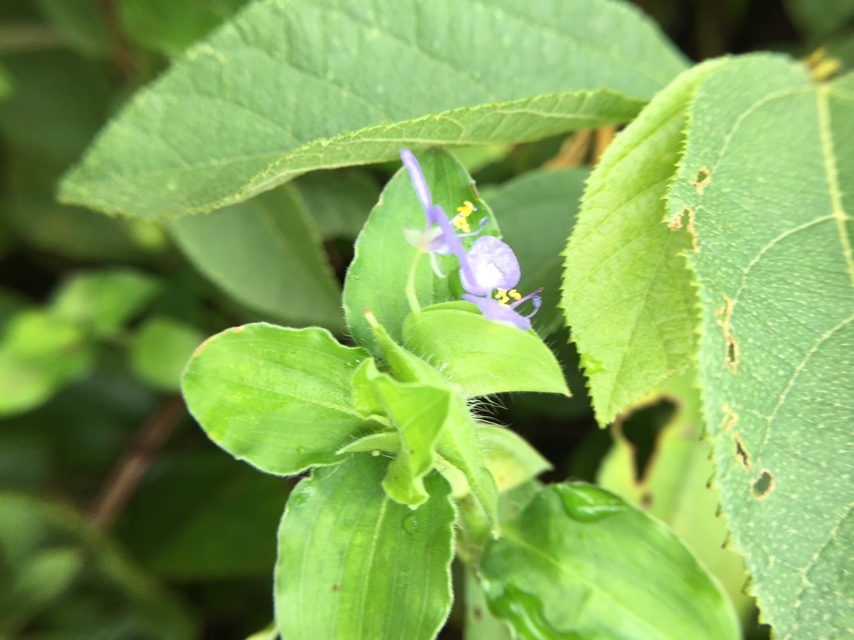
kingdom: Plantae
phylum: Tracheophyta
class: Liliopsida
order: Commelinales
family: Commelinaceae
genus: Commelina
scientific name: Commelina benghalensis
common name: Jio
